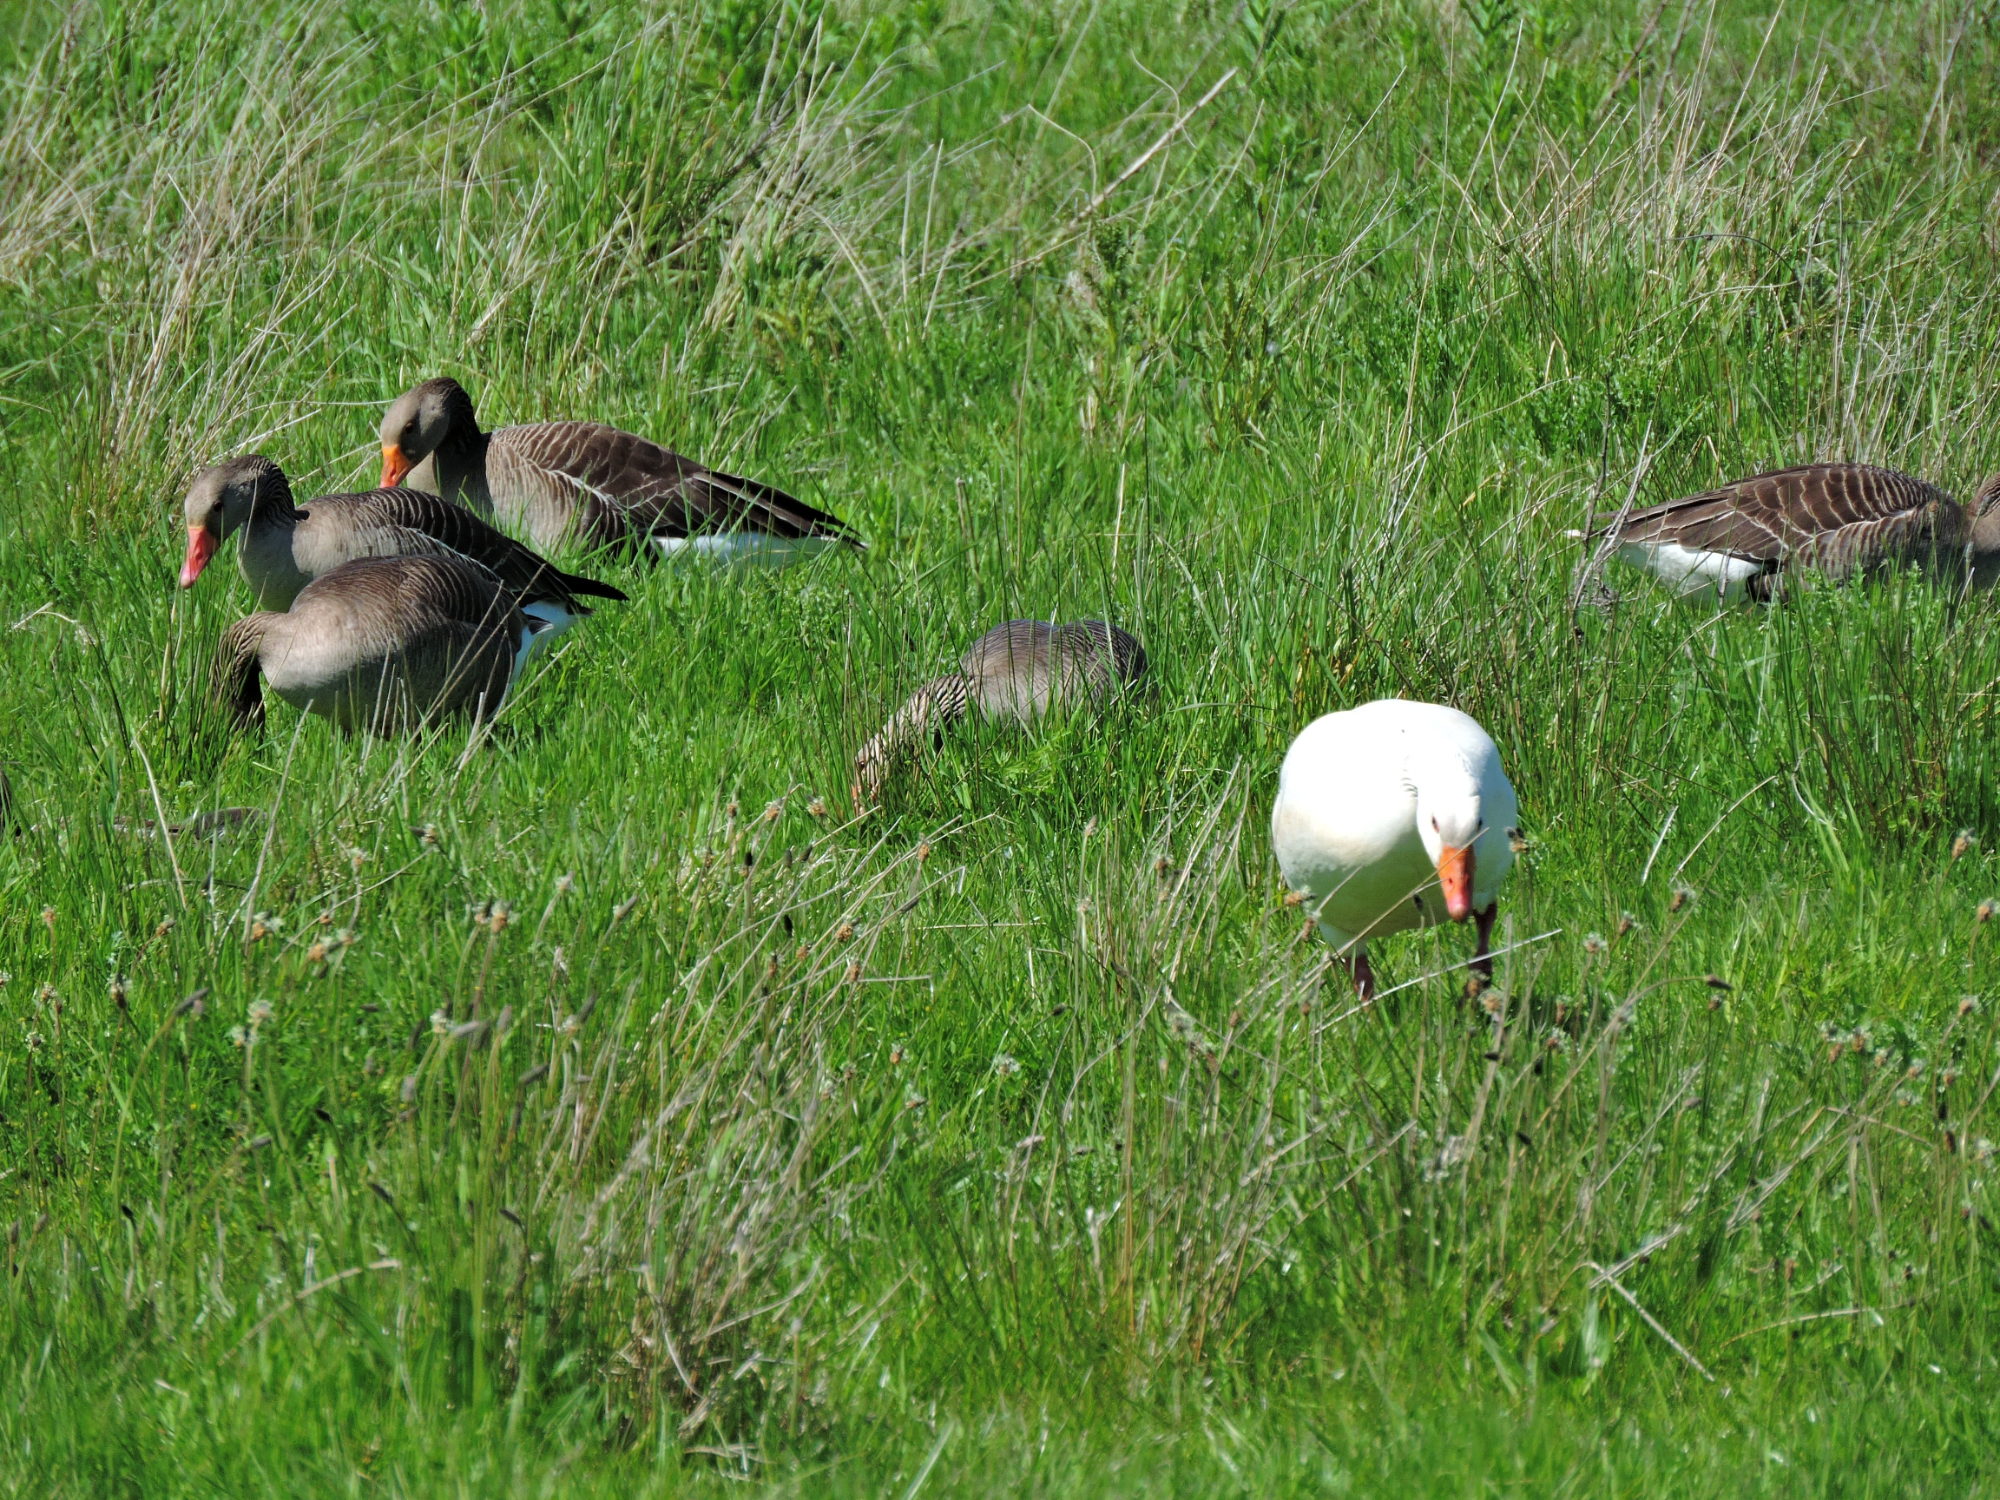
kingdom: Animalia
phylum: Chordata
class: Aves
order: Anseriformes
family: Anatidae
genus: Anser
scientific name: Anser anser
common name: Greylag goose
